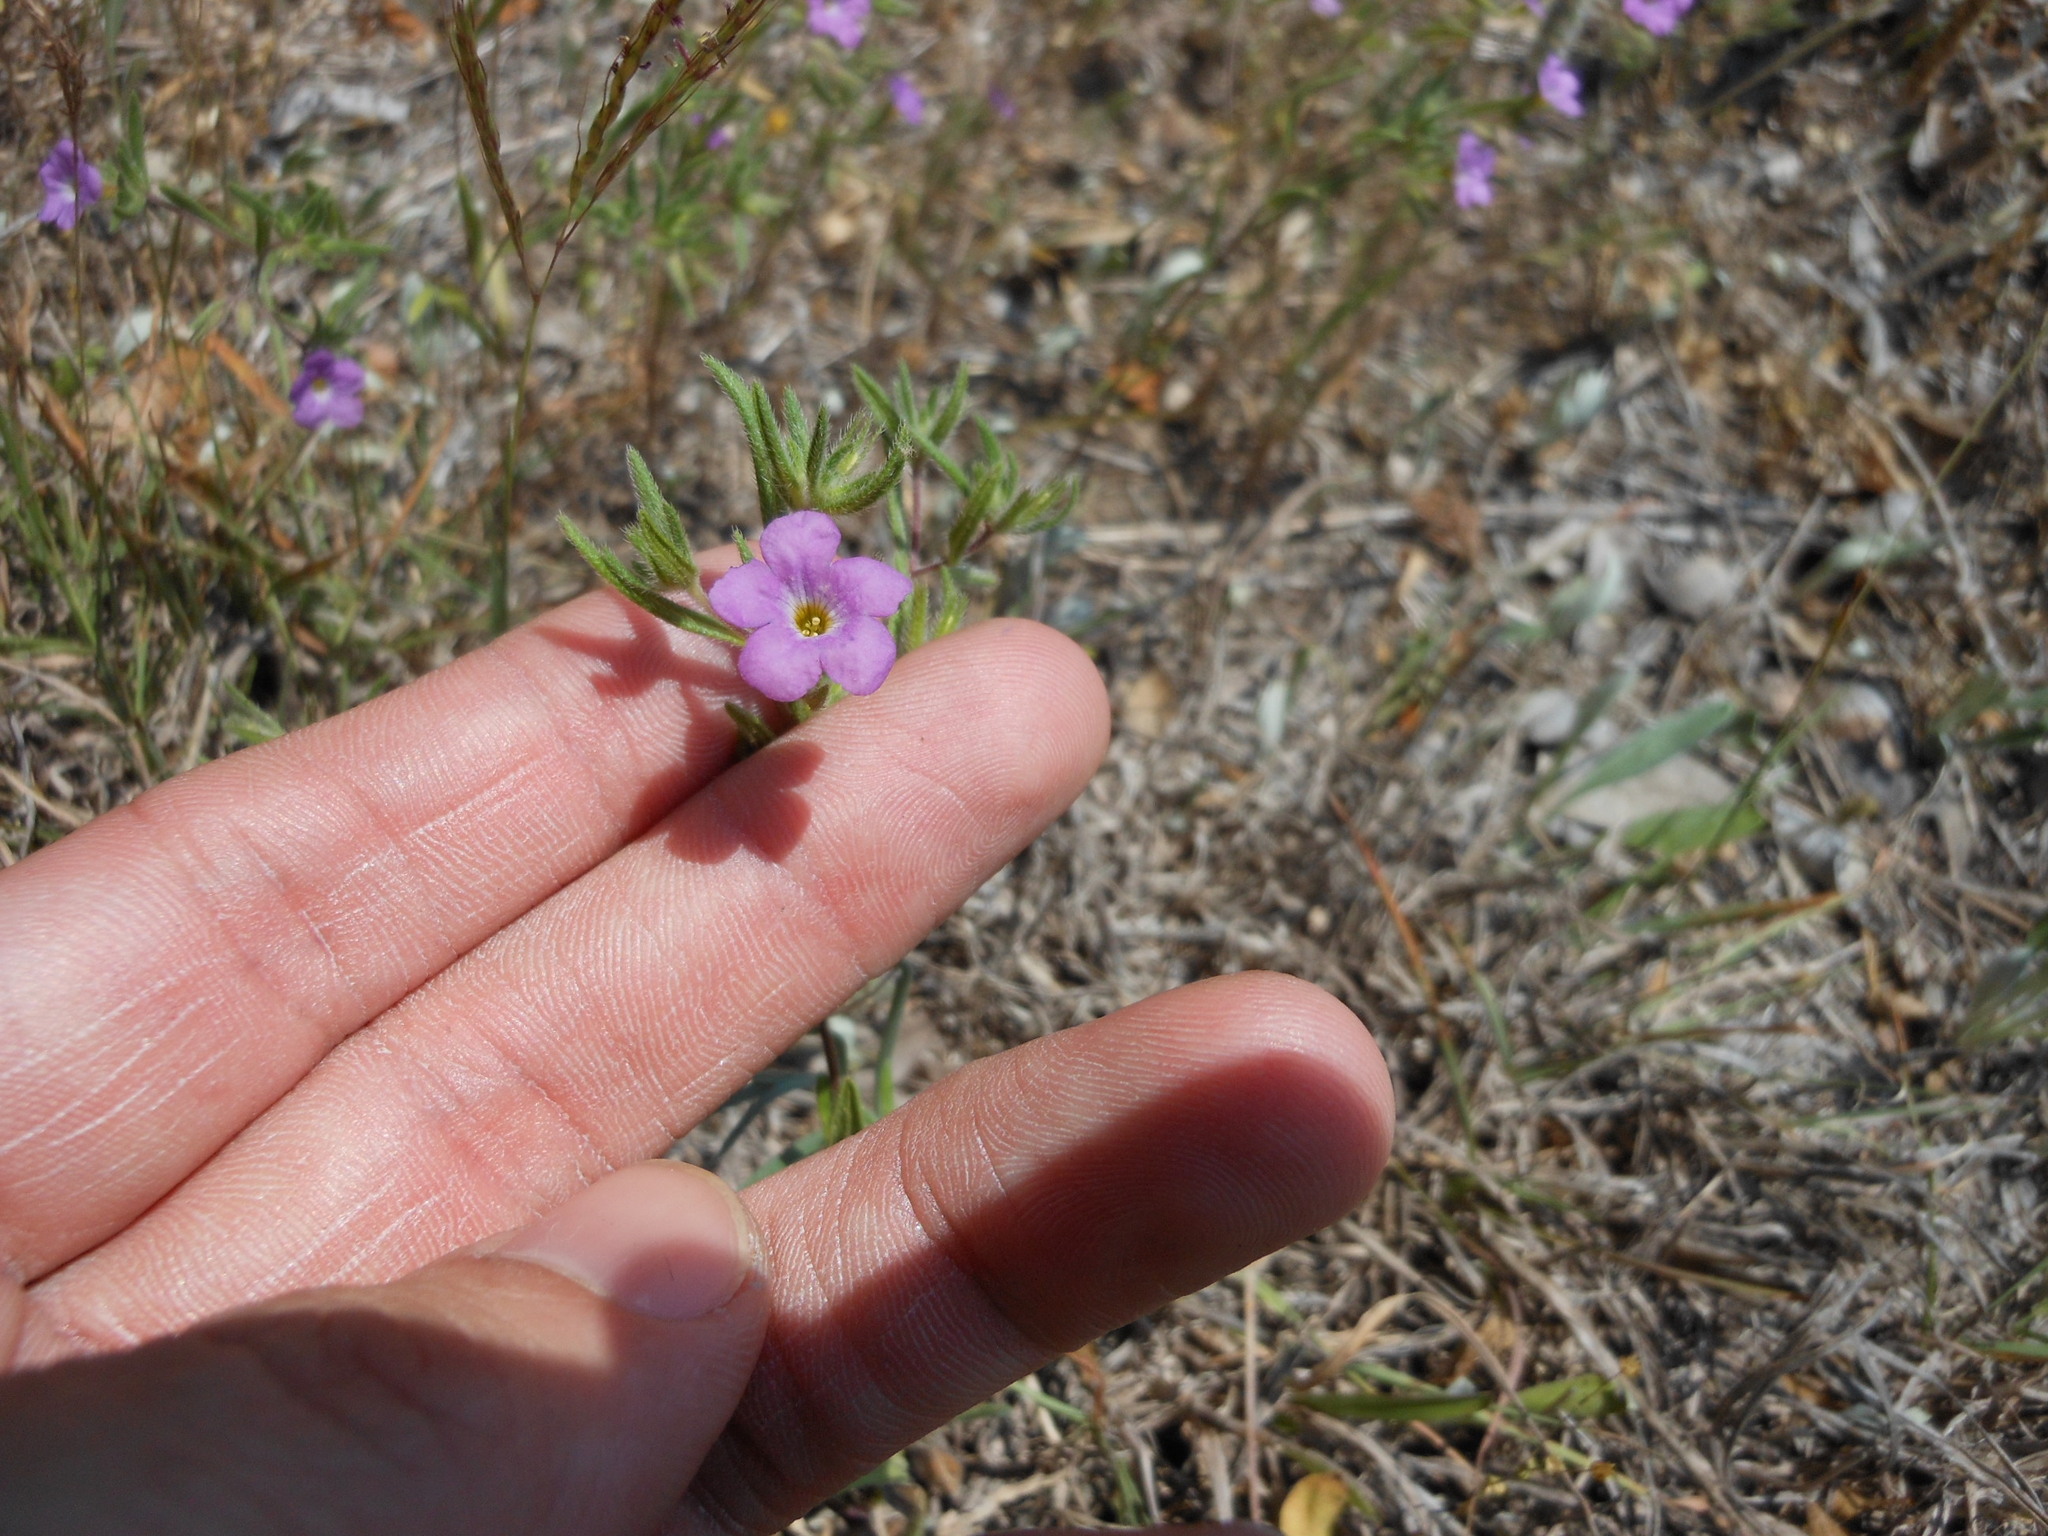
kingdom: Plantae
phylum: Tracheophyta
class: Magnoliopsida
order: Boraginales
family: Namaceae
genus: Nama
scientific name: Nama hispida
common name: Bristly nama
